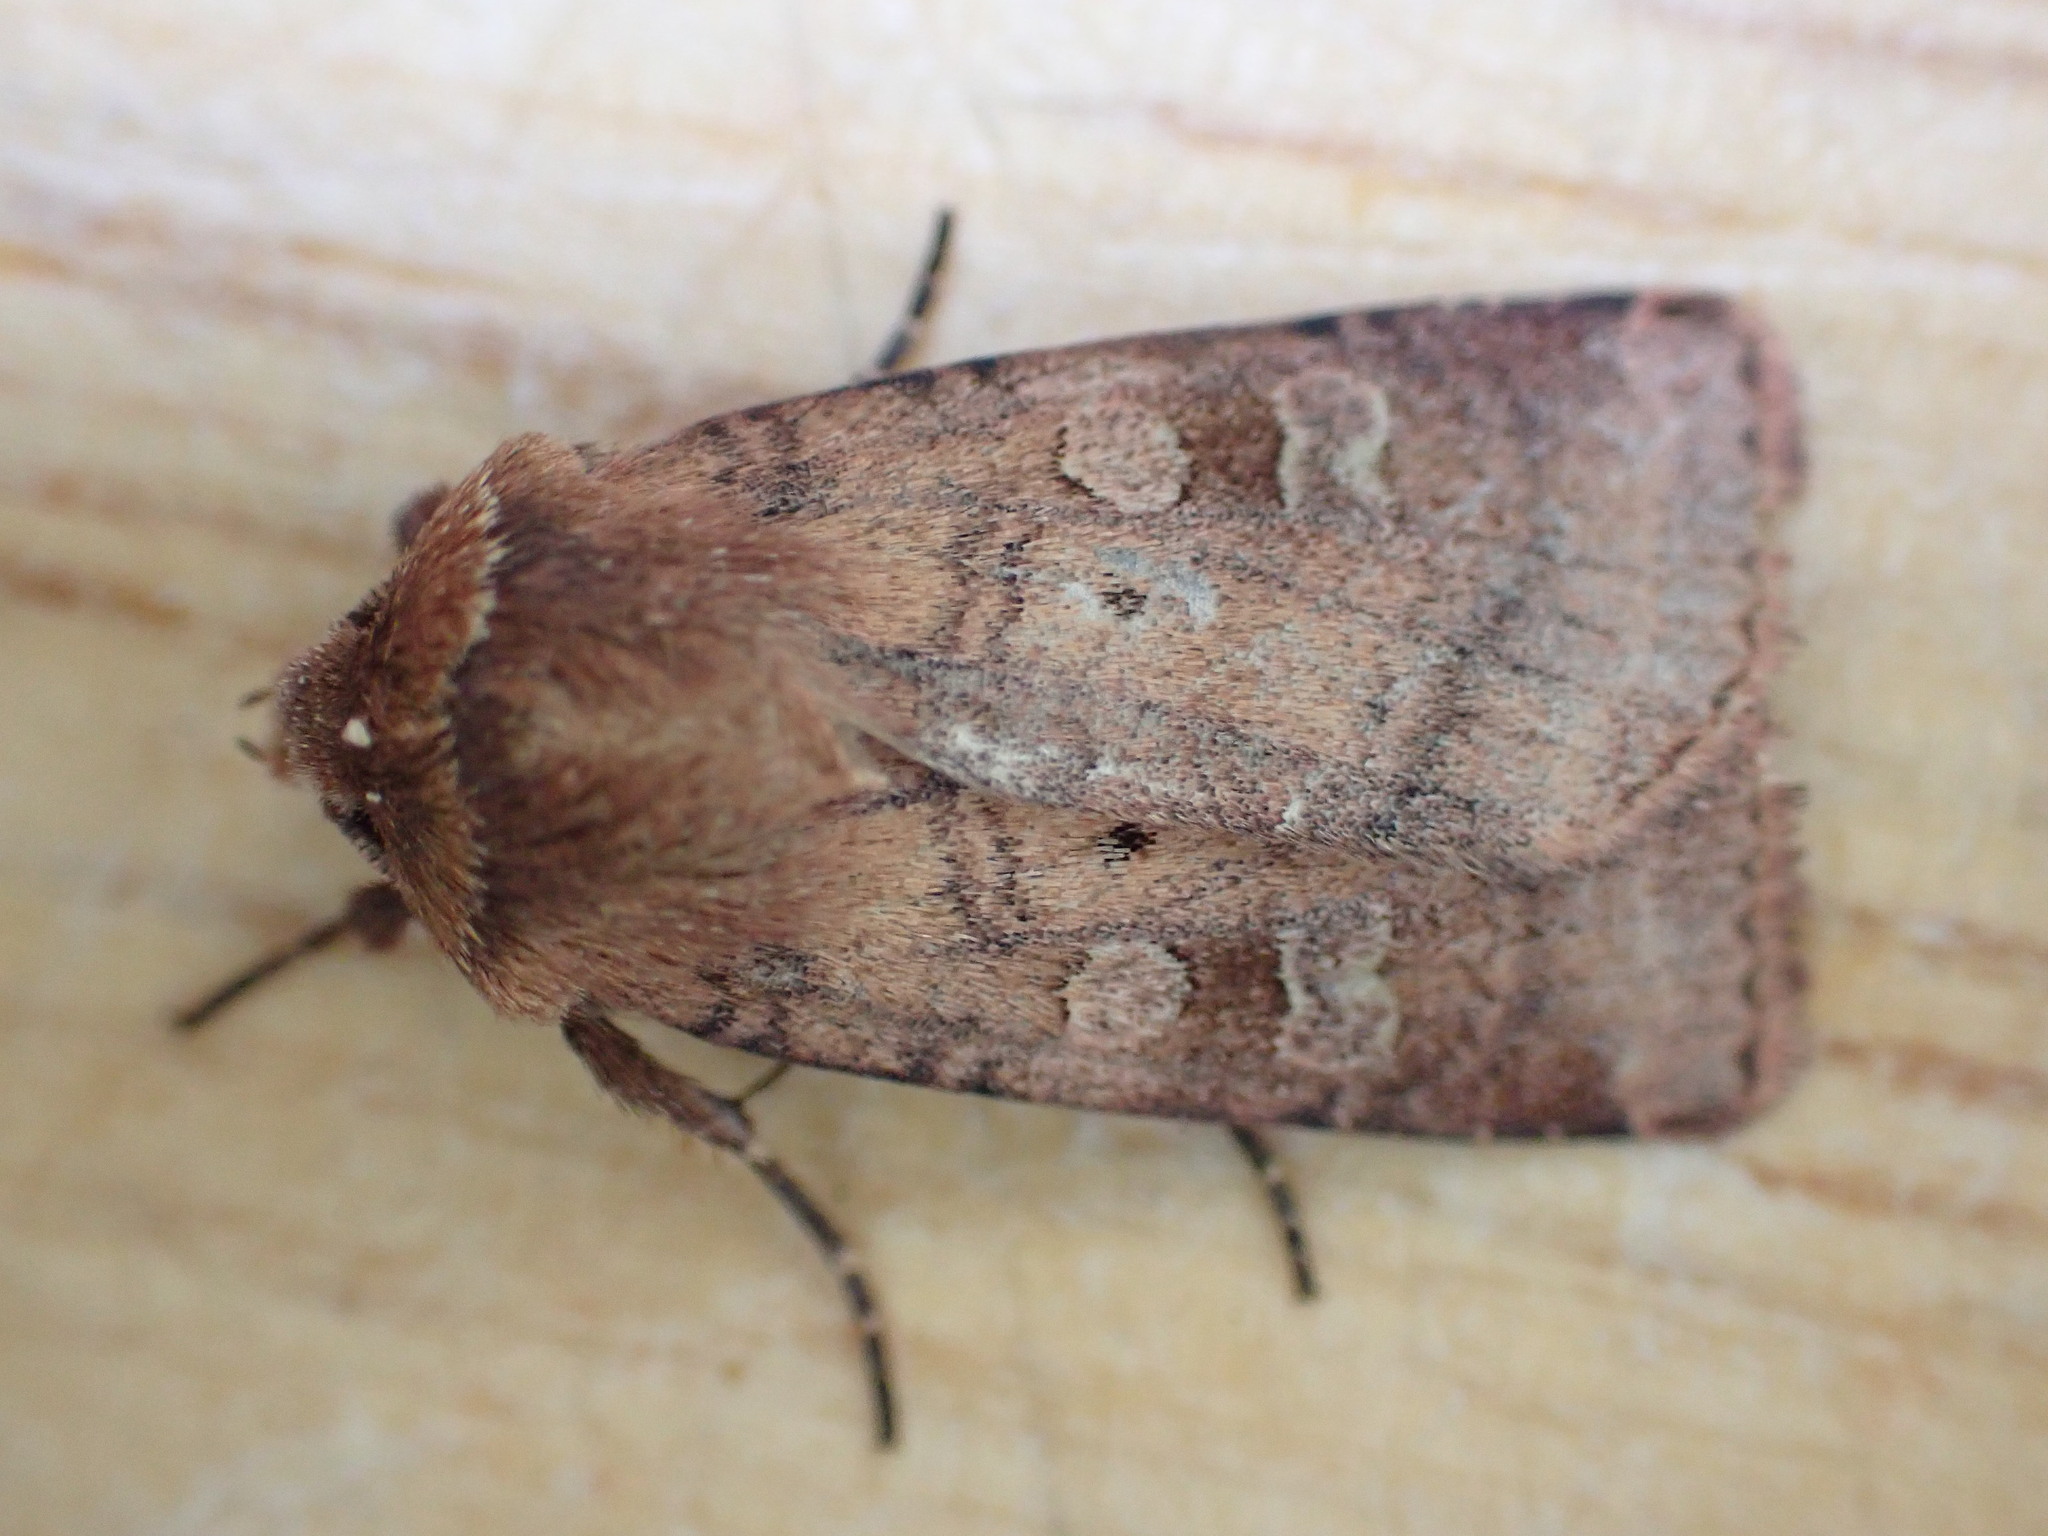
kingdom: Animalia
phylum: Arthropoda
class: Insecta
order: Lepidoptera
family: Noctuidae
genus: Diarsia
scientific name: Diarsia rubi
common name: Small square-spot
